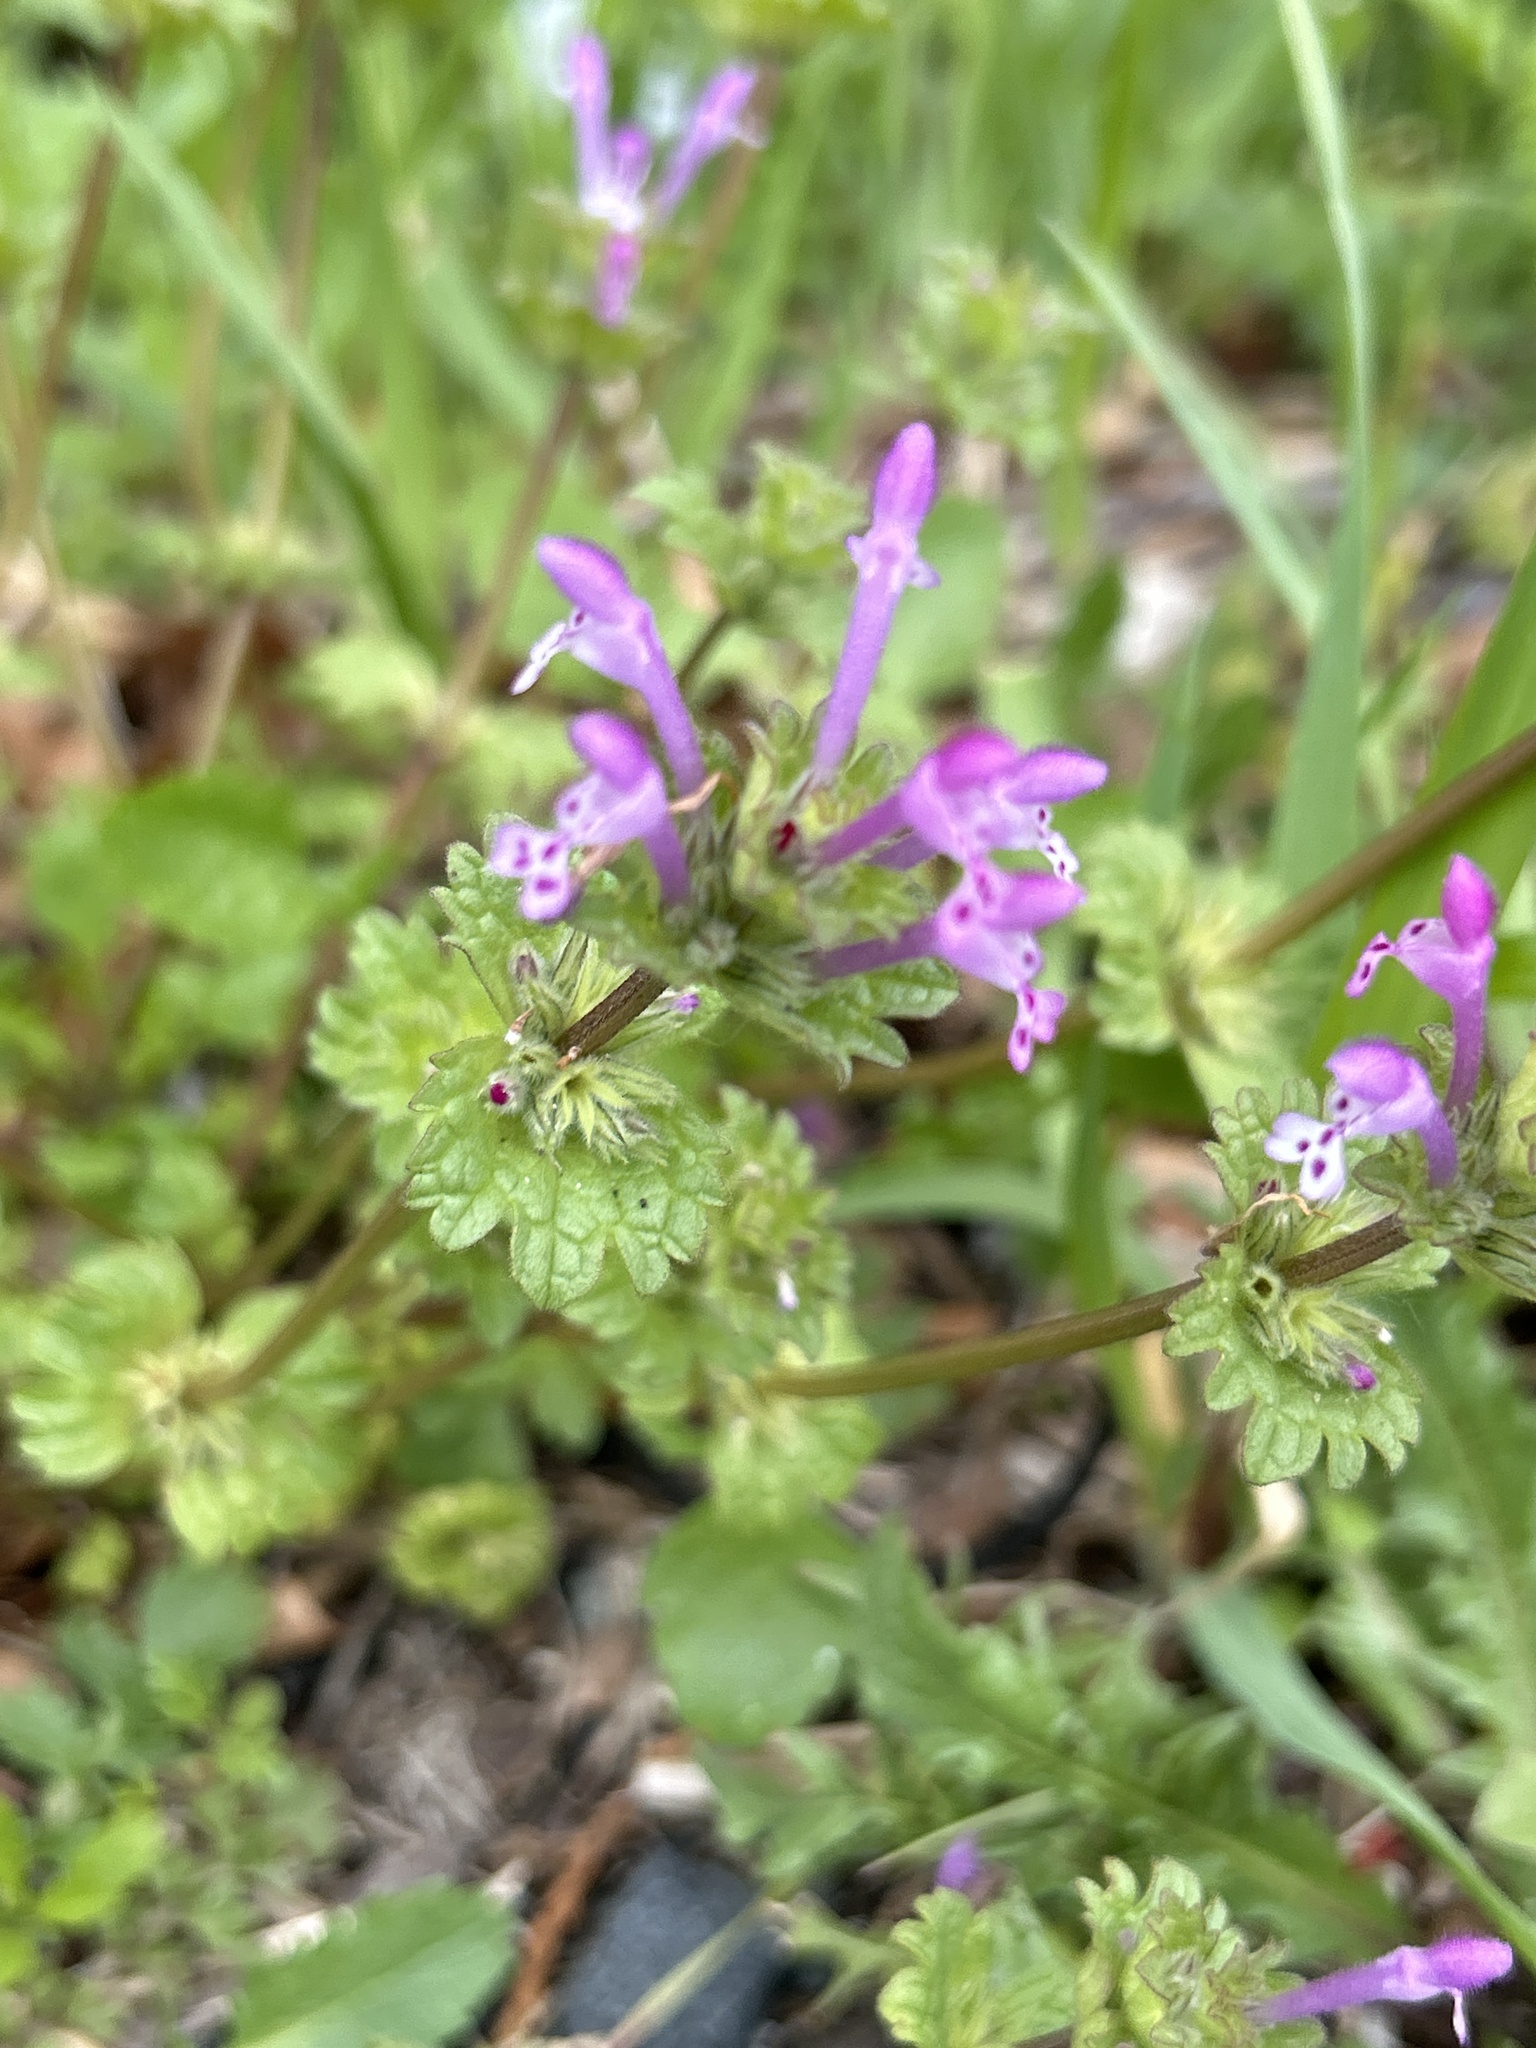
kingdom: Plantae
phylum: Tracheophyta
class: Magnoliopsida
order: Lamiales
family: Lamiaceae
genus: Lamium
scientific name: Lamium amplexicaule
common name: Henbit dead-nettle
